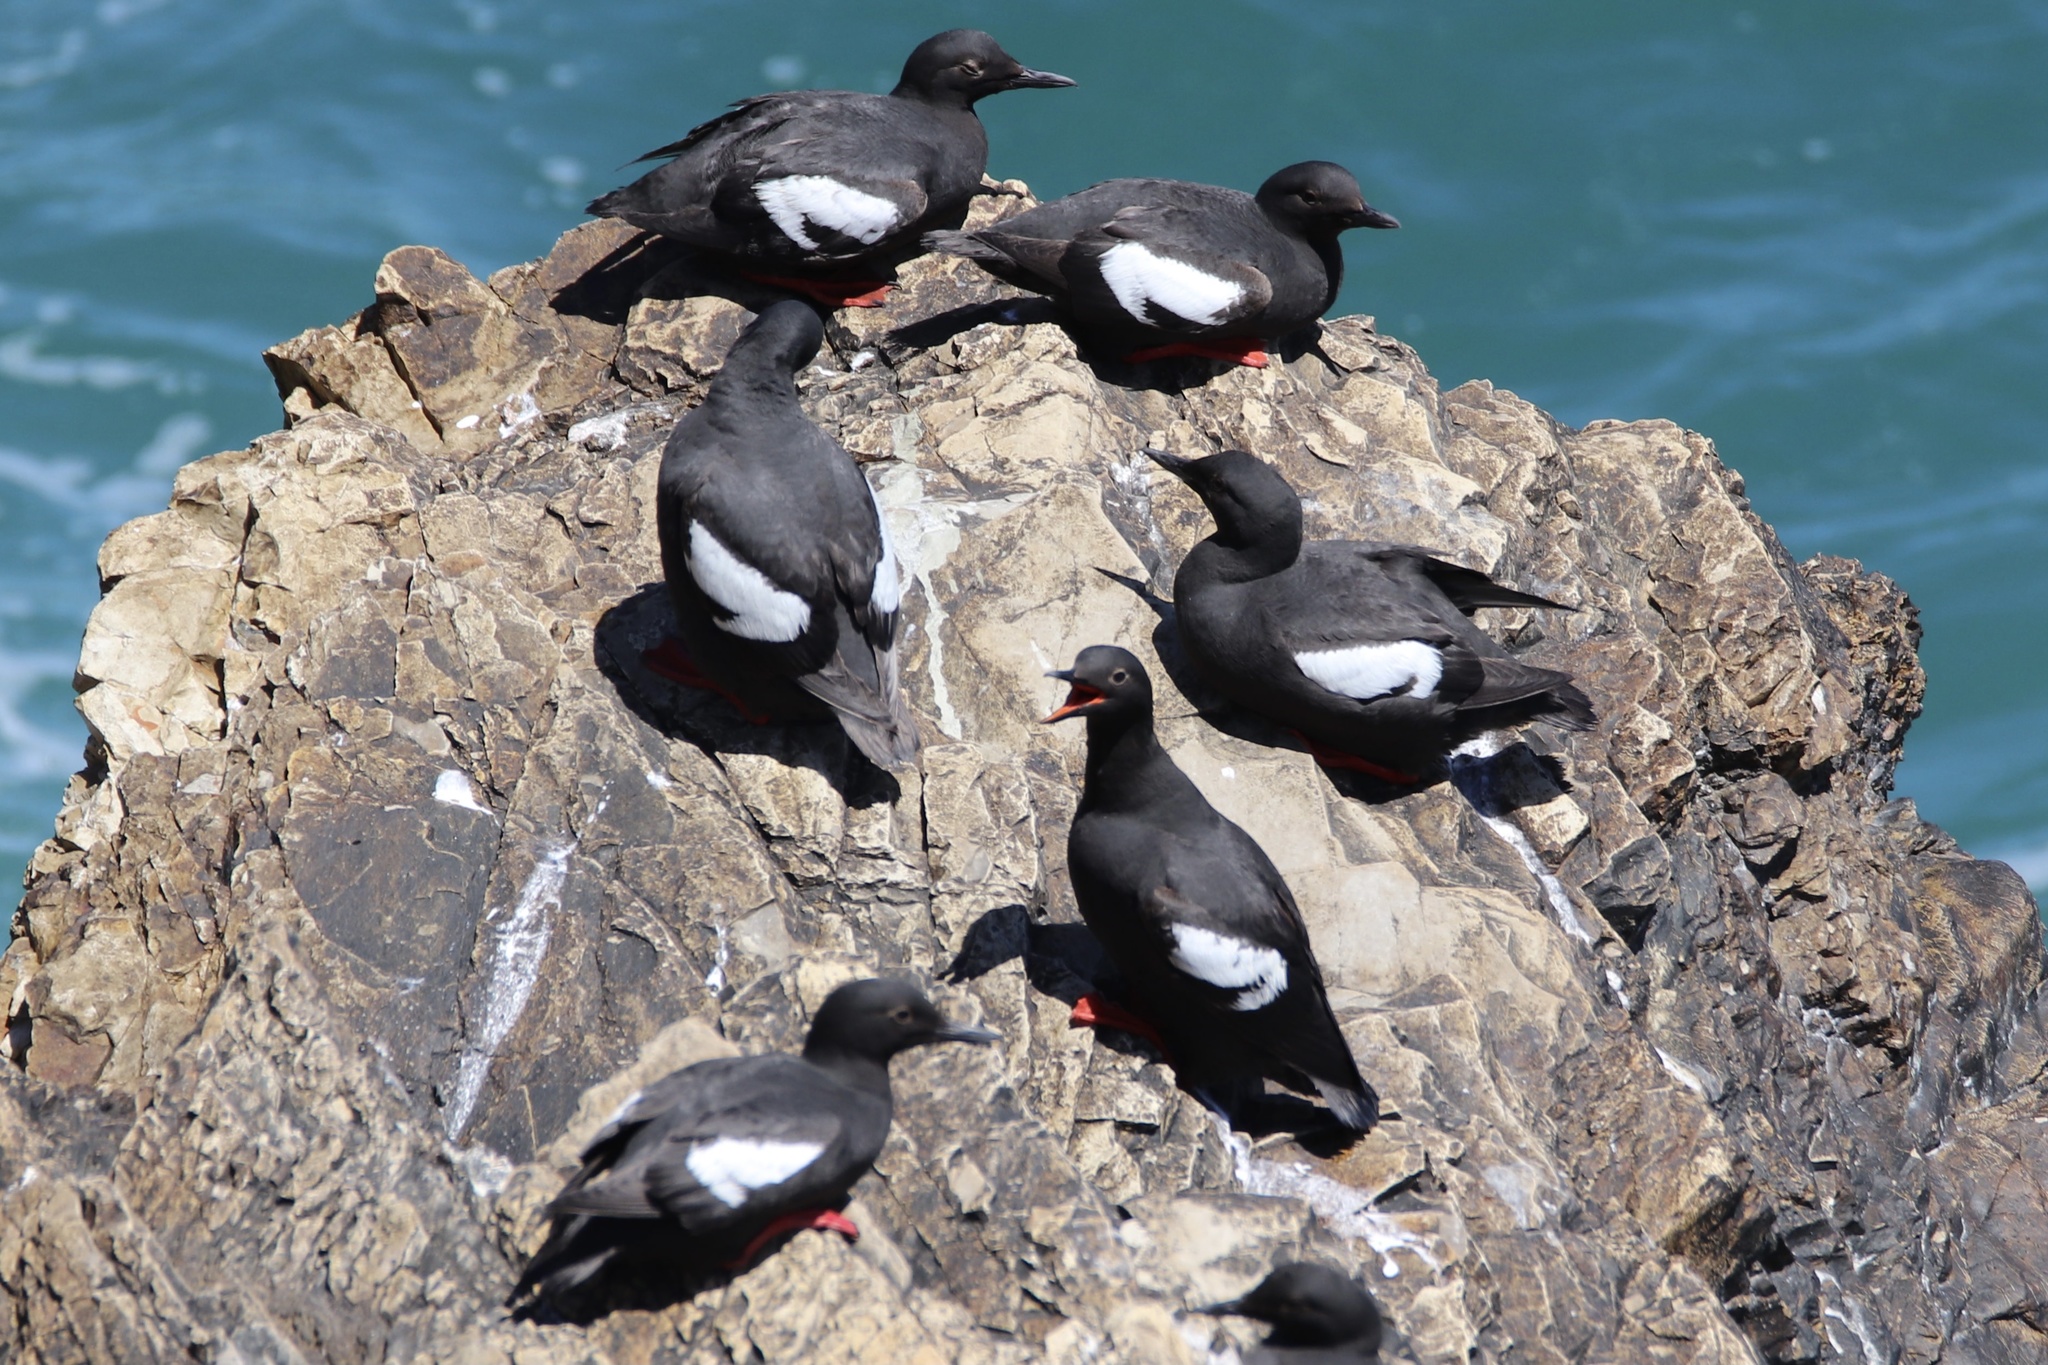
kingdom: Animalia
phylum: Chordata
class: Aves
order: Charadriiformes
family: Alcidae
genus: Cepphus
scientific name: Cepphus columba
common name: Pigeon guillemot
